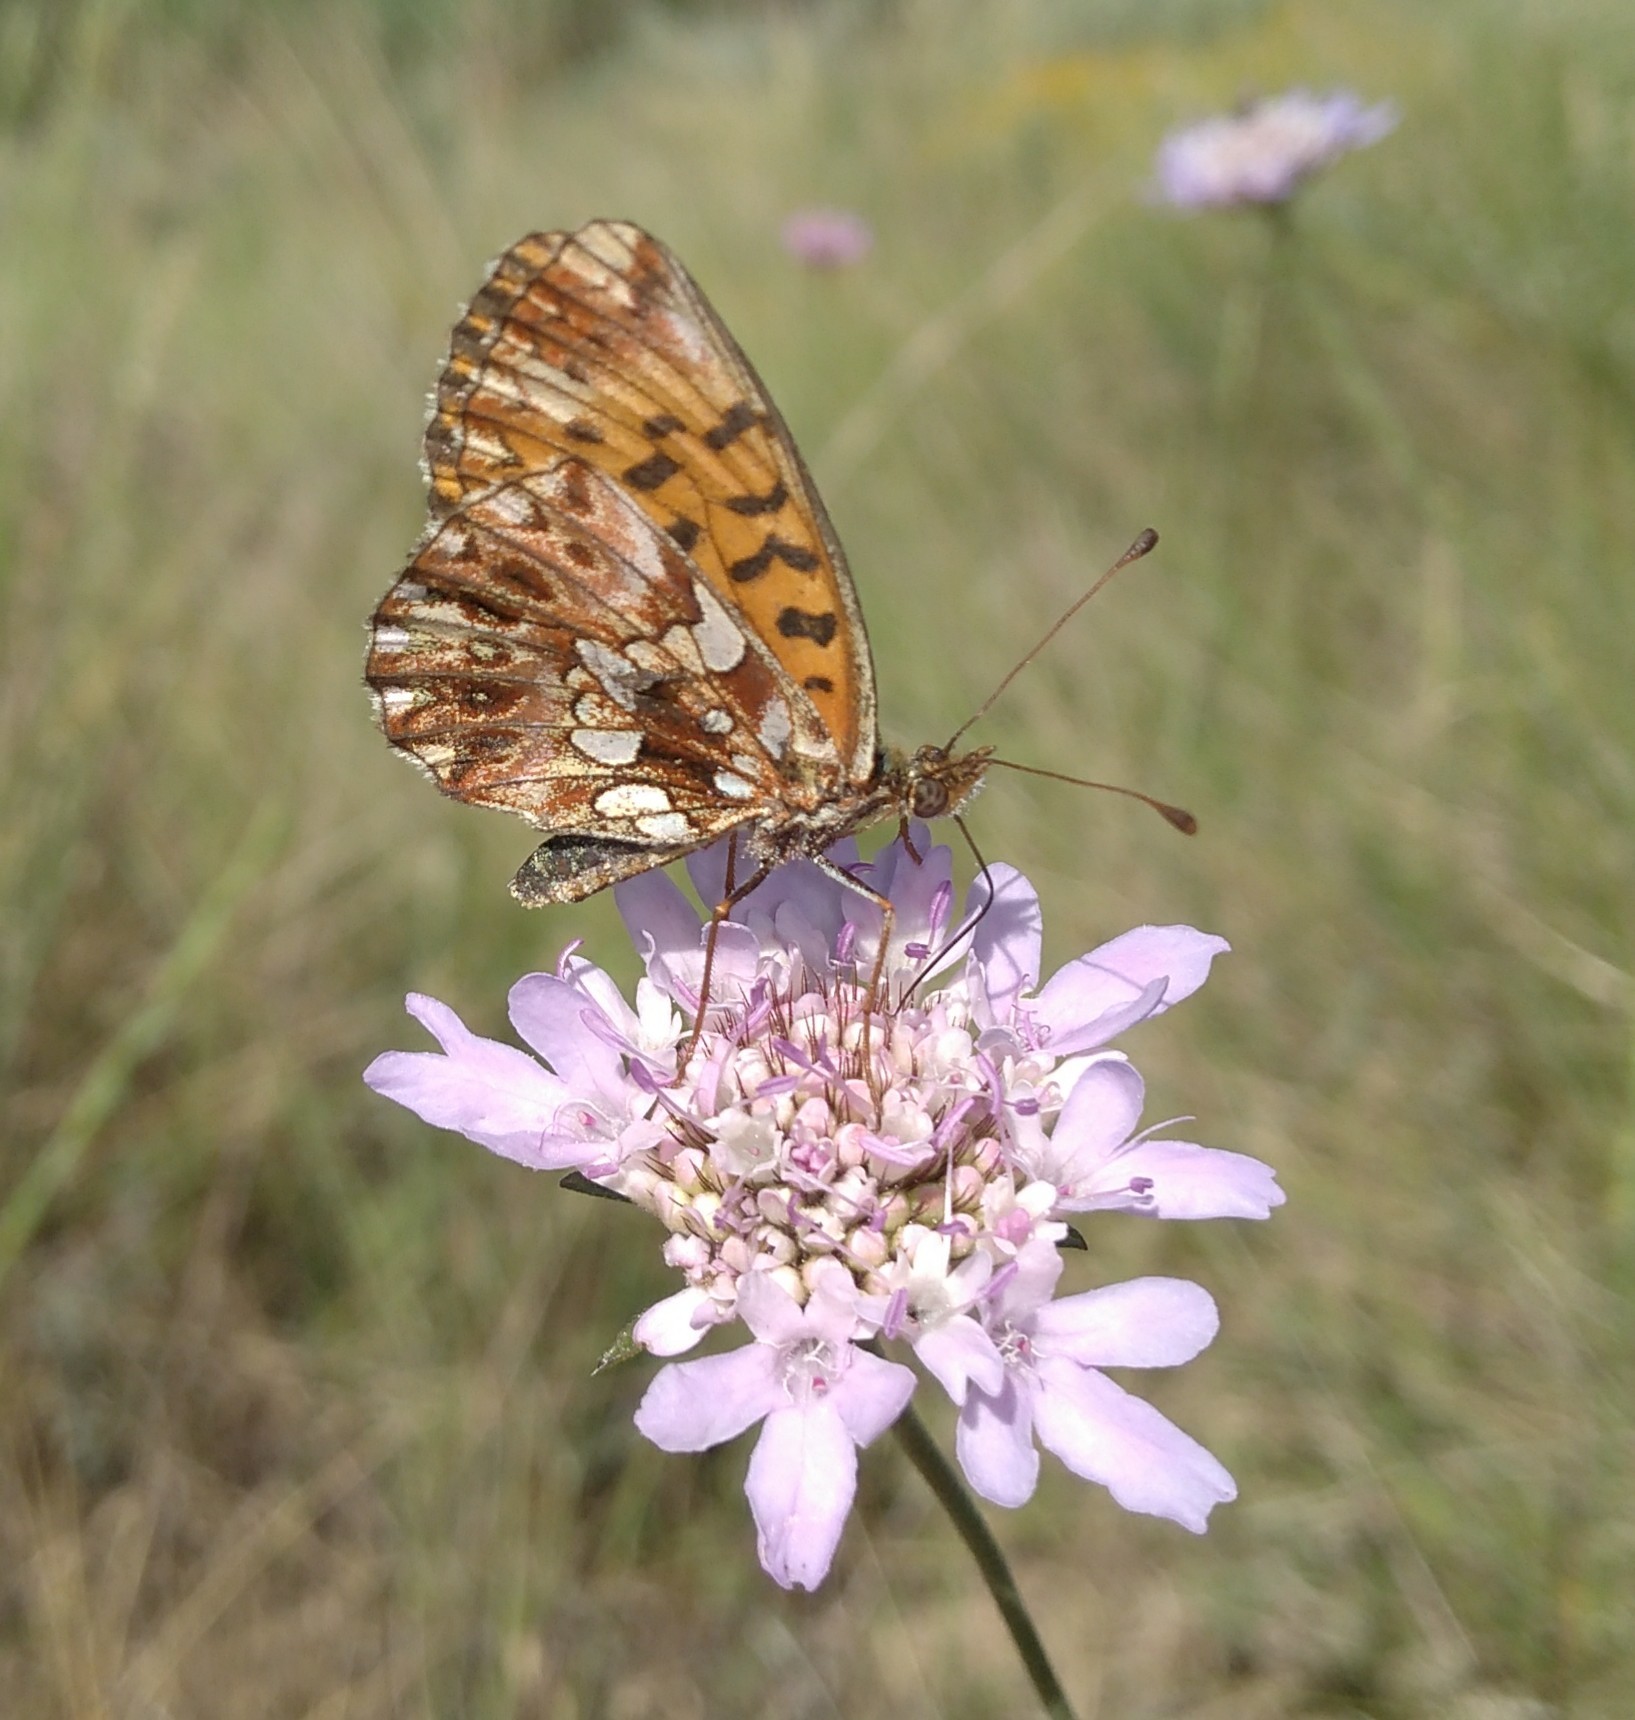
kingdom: Animalia
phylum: Arthropoda
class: Insecta
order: Lepidoptera
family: Nymphalidae
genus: Boloria
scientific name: Boloria dia
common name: Weaver's fritillary
